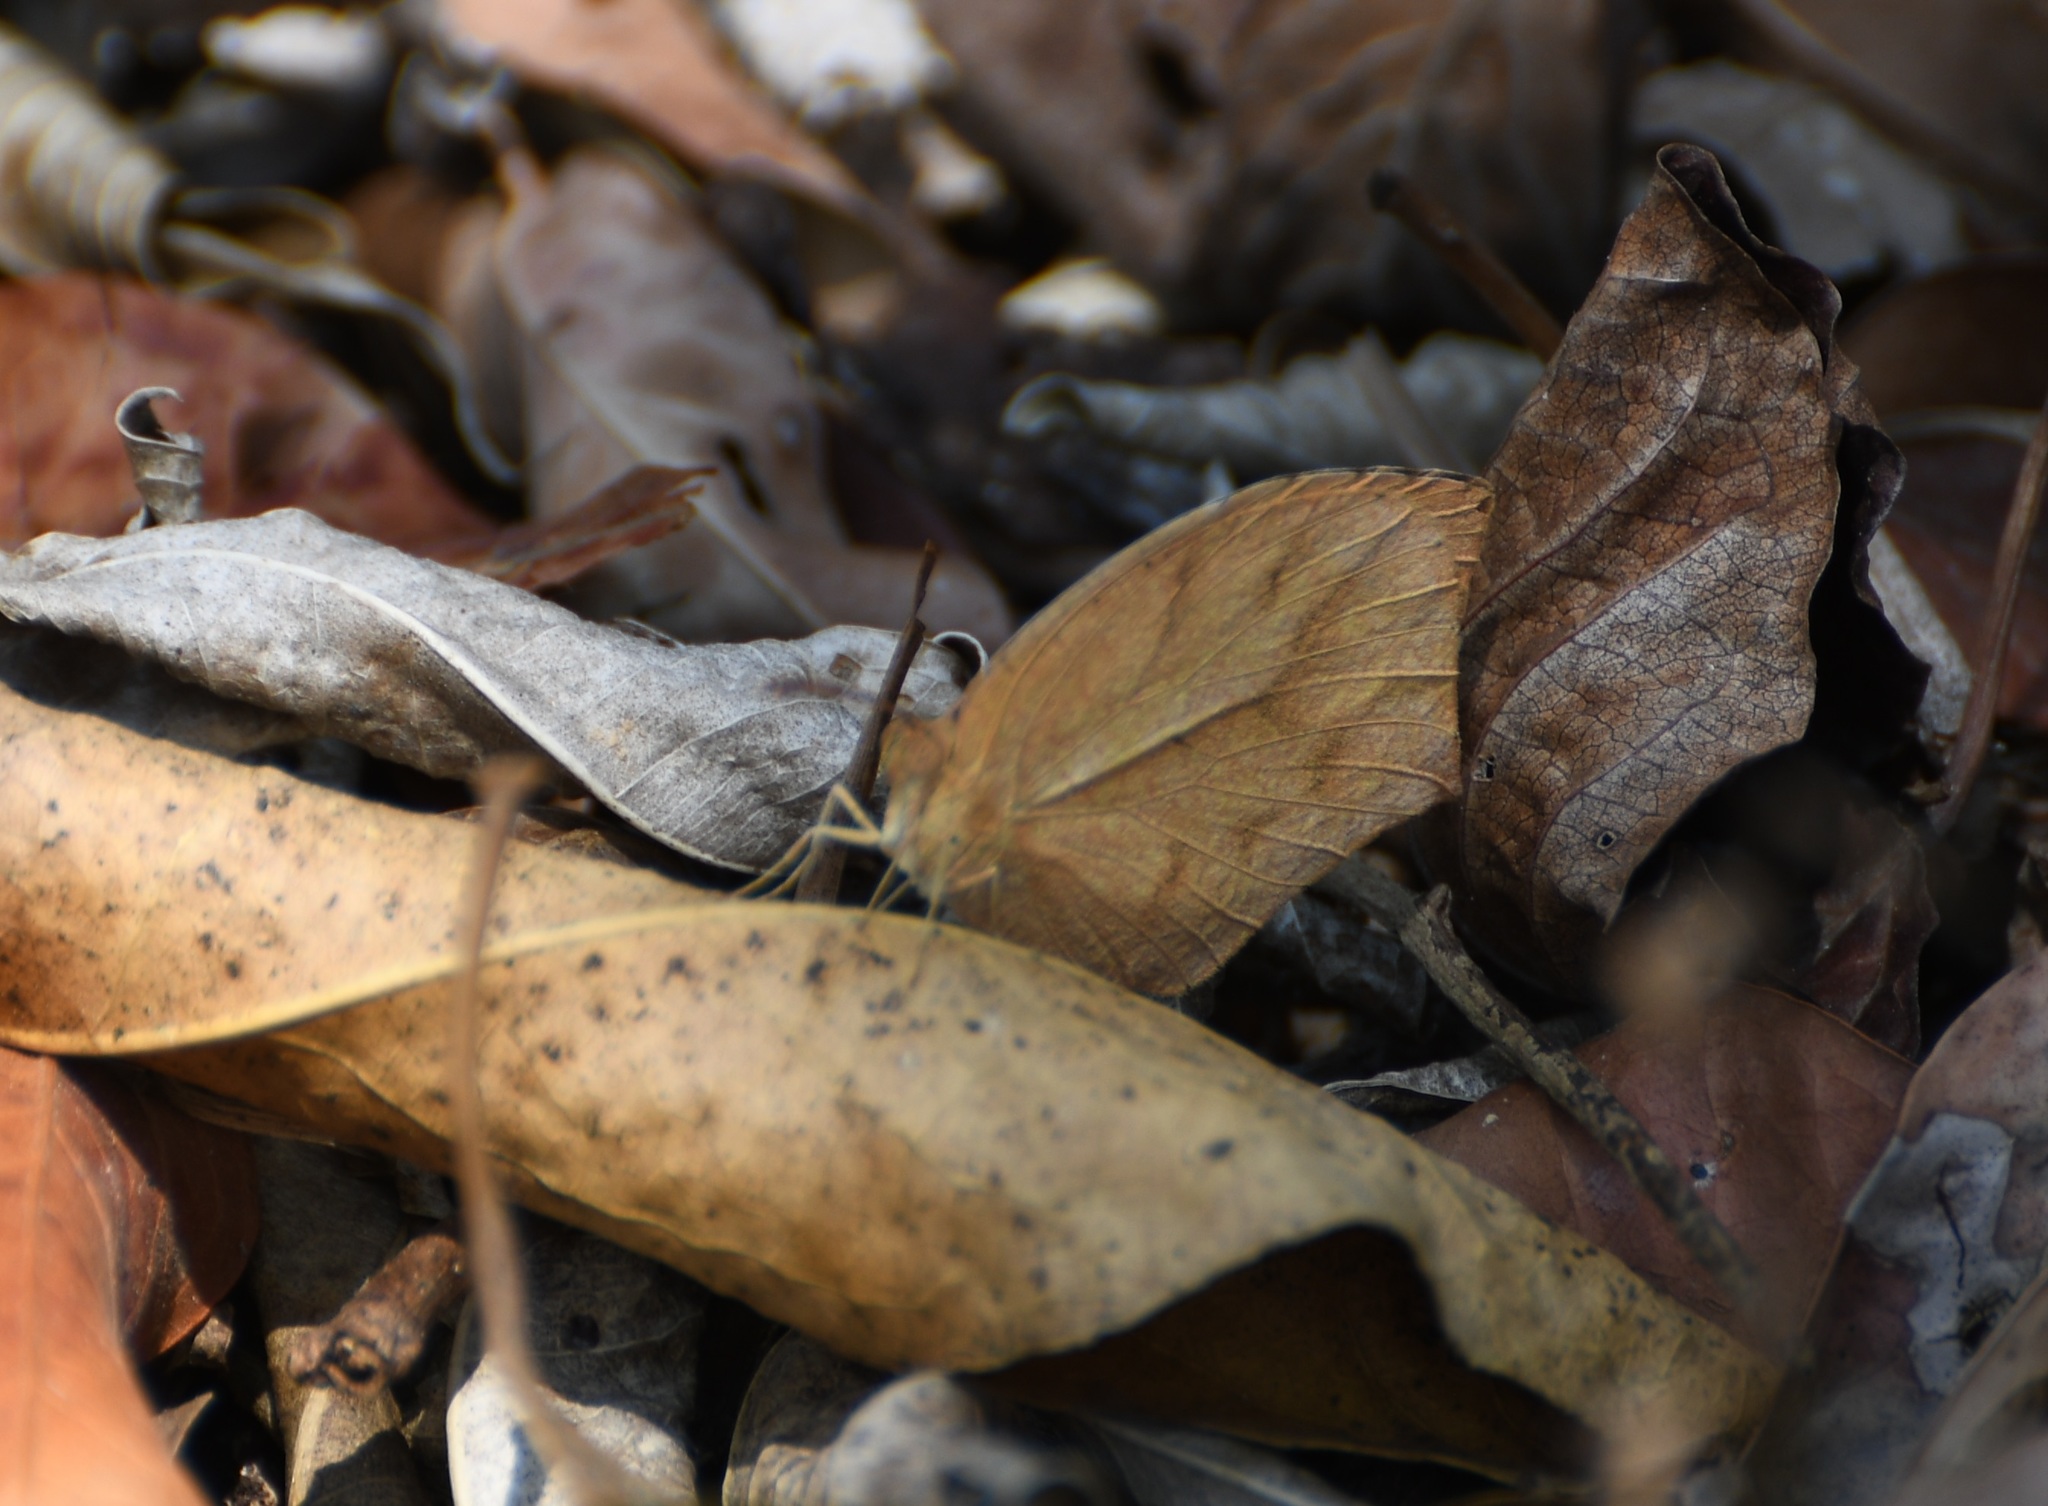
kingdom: Animalia
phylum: Arthropoda
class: Insecta
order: Lepidoptera
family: Pieridae
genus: Pyrisitia
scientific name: Pyrisitia proterpia
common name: Tailed orange
